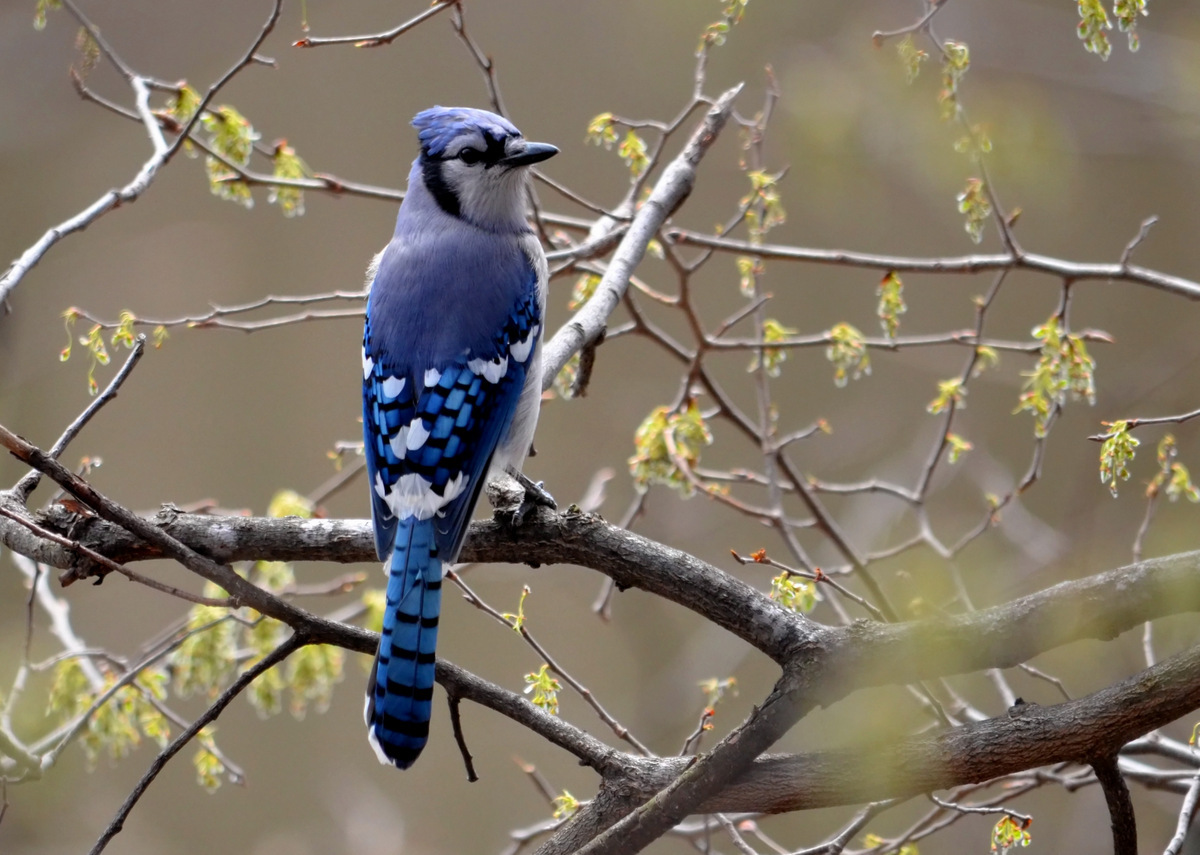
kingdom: Animalia
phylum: Chordata
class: Aves
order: Passeriformes
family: Corvidae
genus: Cyanocitta
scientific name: Cyanocitta cristata
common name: Blue jay
